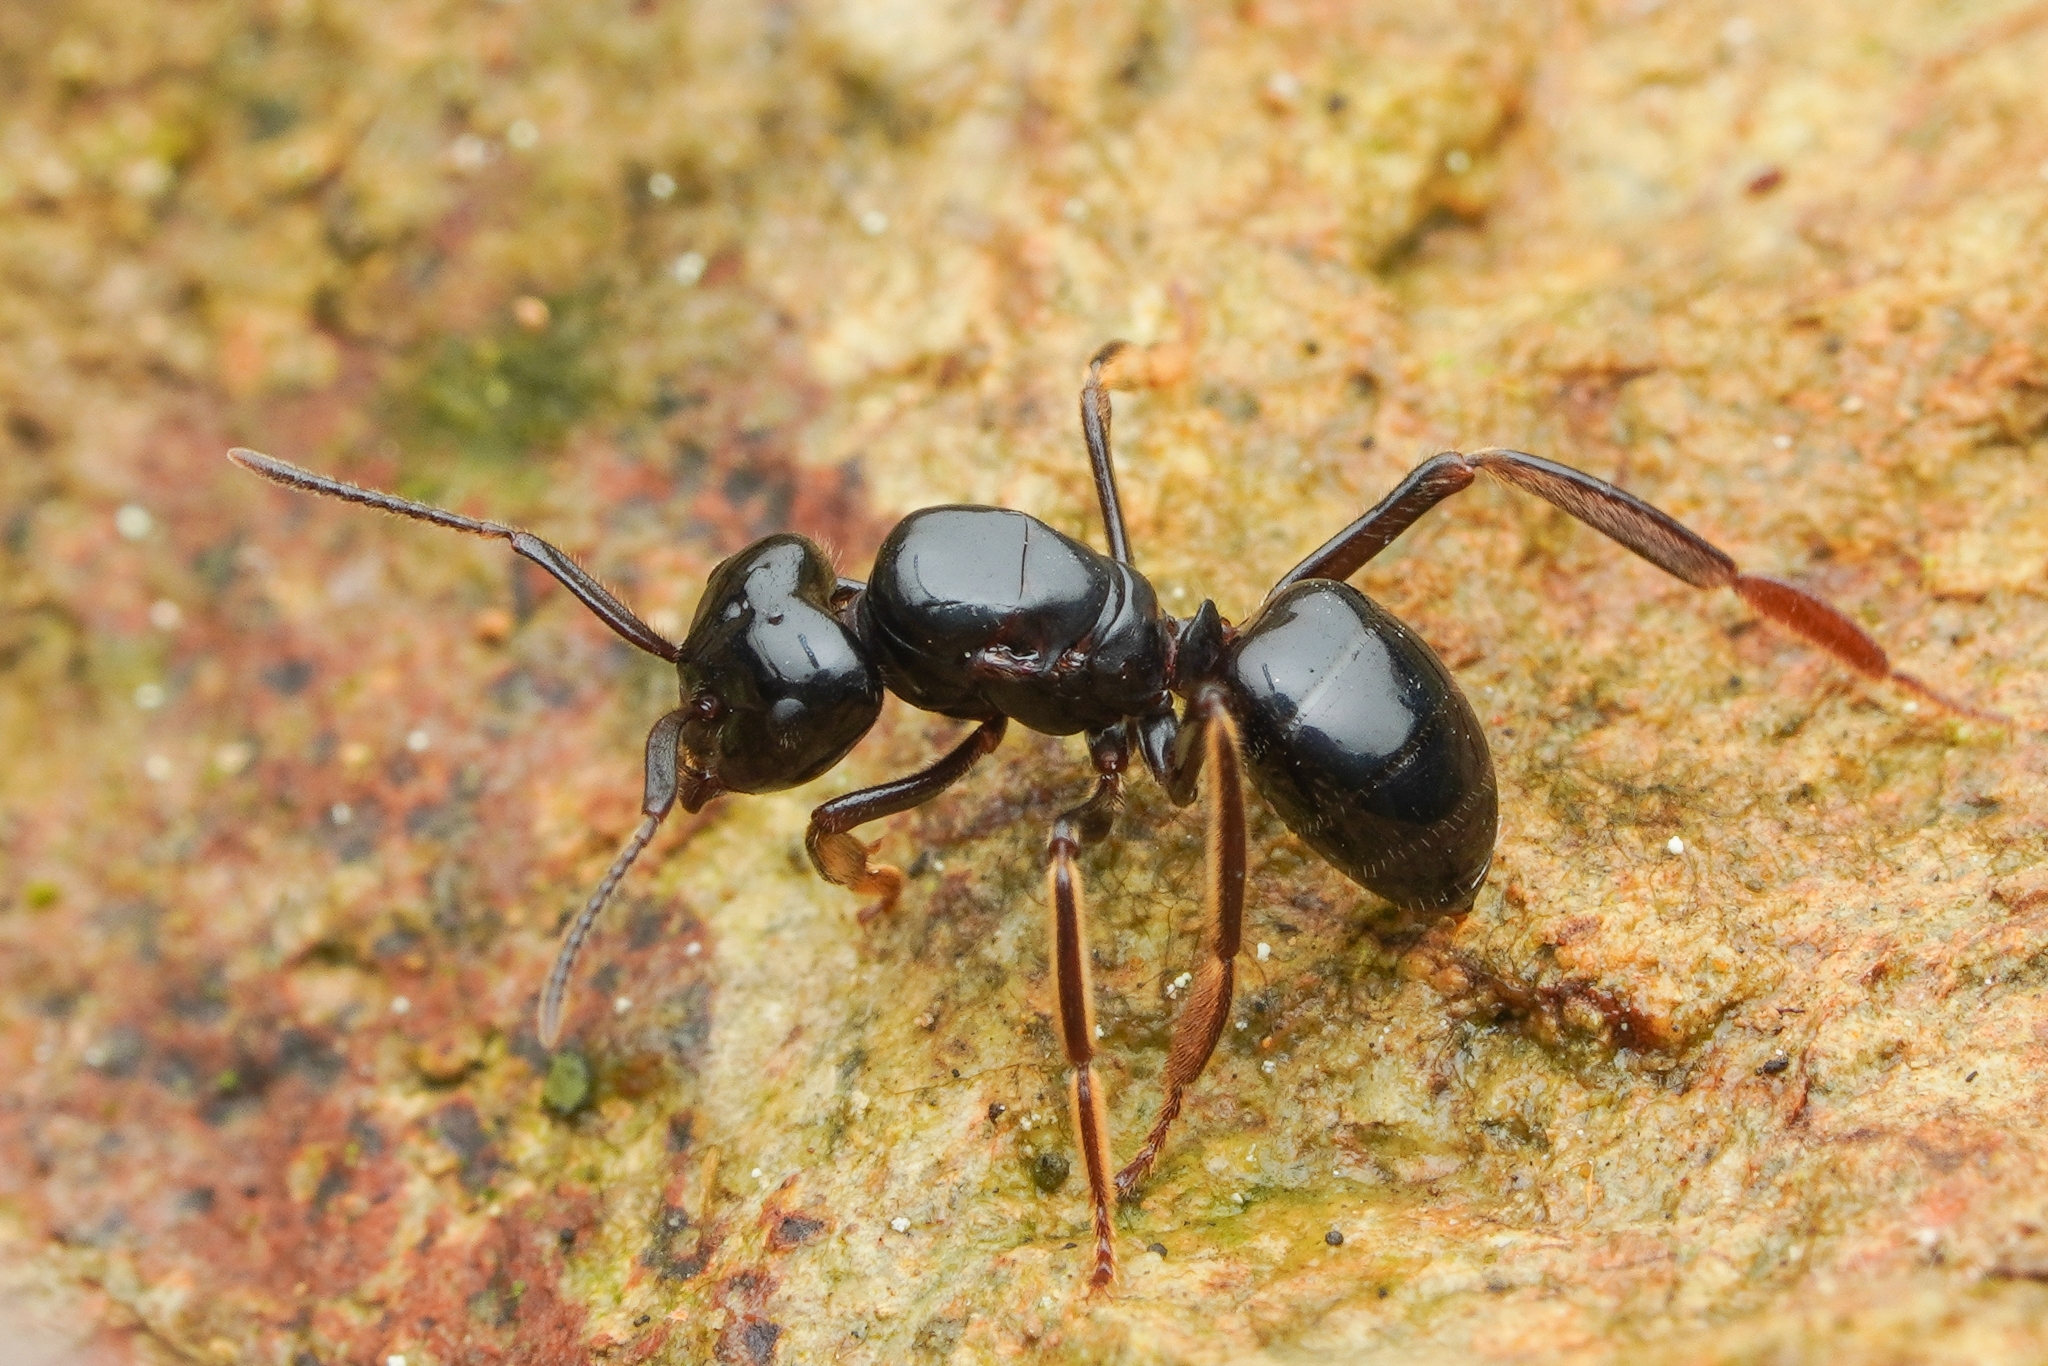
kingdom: Animalia
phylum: Arthropoda
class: Insecta
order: Hymenoptera
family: Formicidae
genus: Lasius
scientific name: Lasius spathepus
